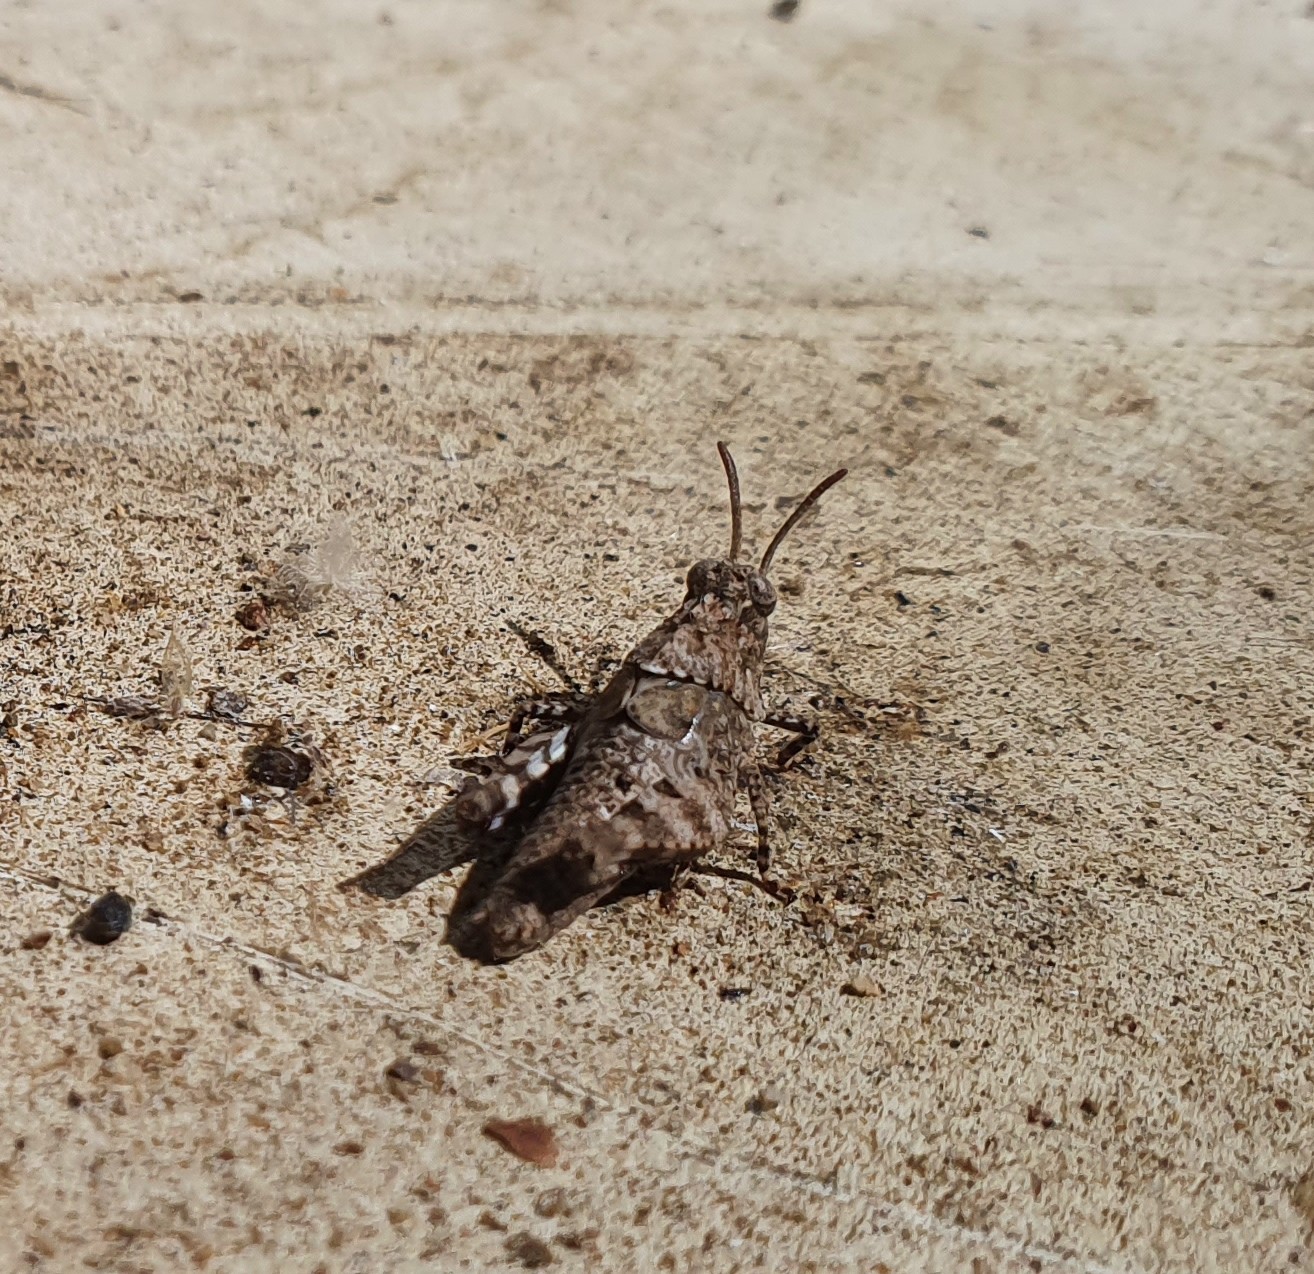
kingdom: Animalia
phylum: Arthropoda
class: Insecta
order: Orthoptera
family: Acrididae
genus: Oedipoda
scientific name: Oedipoda caerulescens
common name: Blue-winged grasshopper
